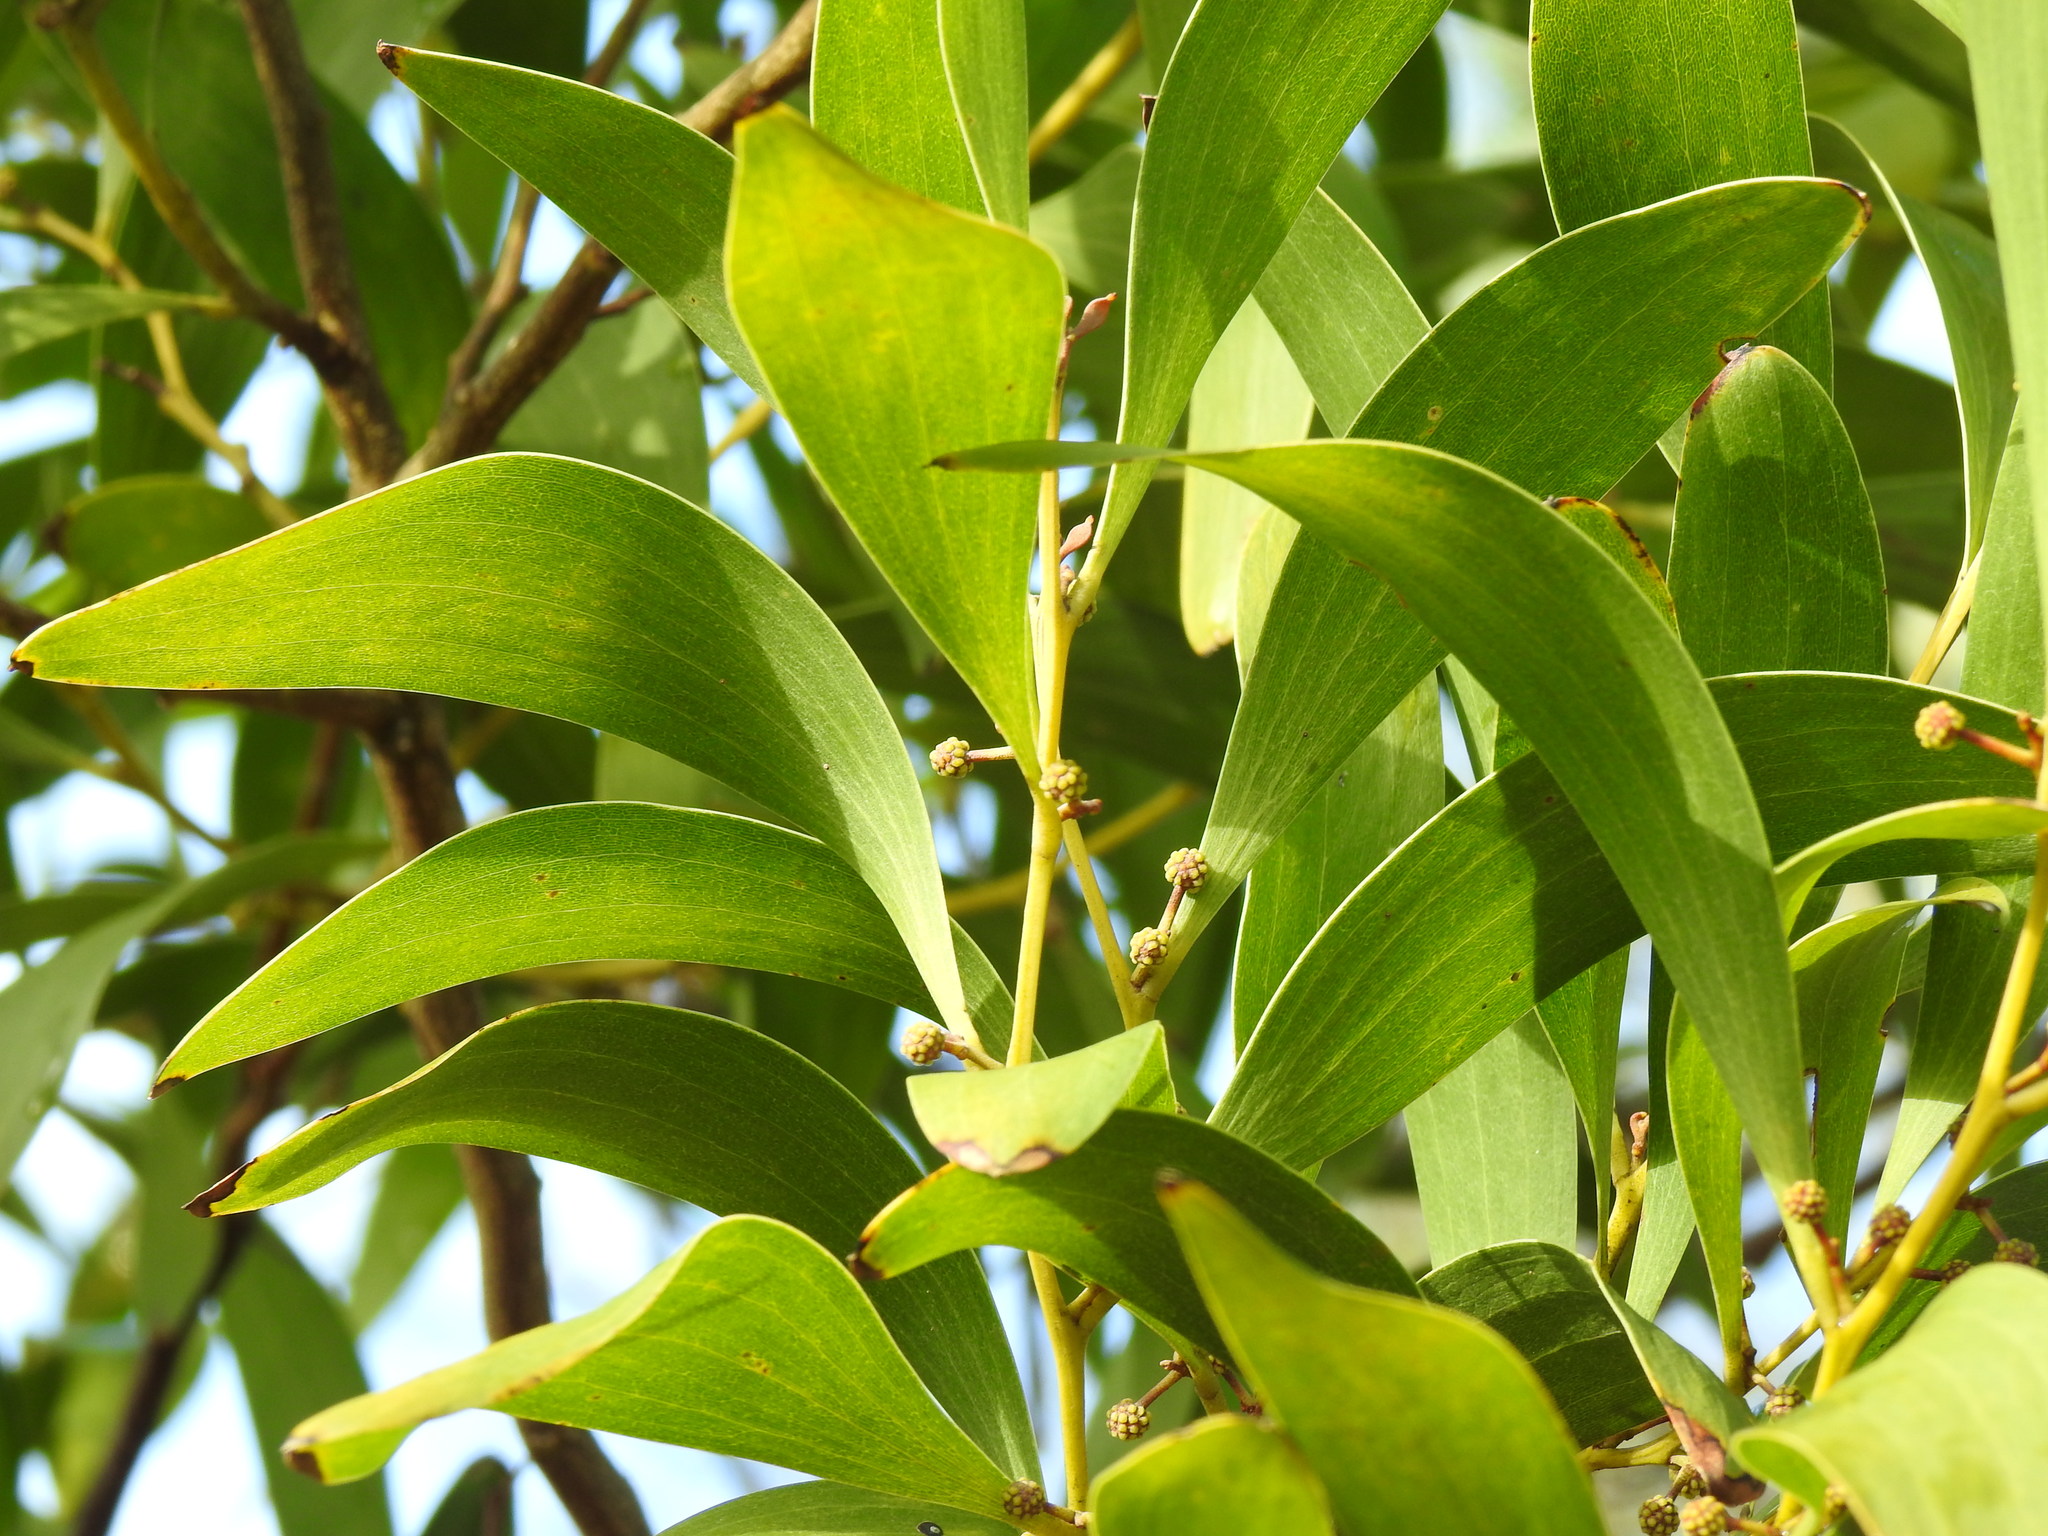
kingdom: Plantae
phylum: Tracheophyta
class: Magnoliopsida
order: Fabales
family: Fabaceae
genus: Acacia
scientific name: Acacia melanoxylon
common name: Blackwood
